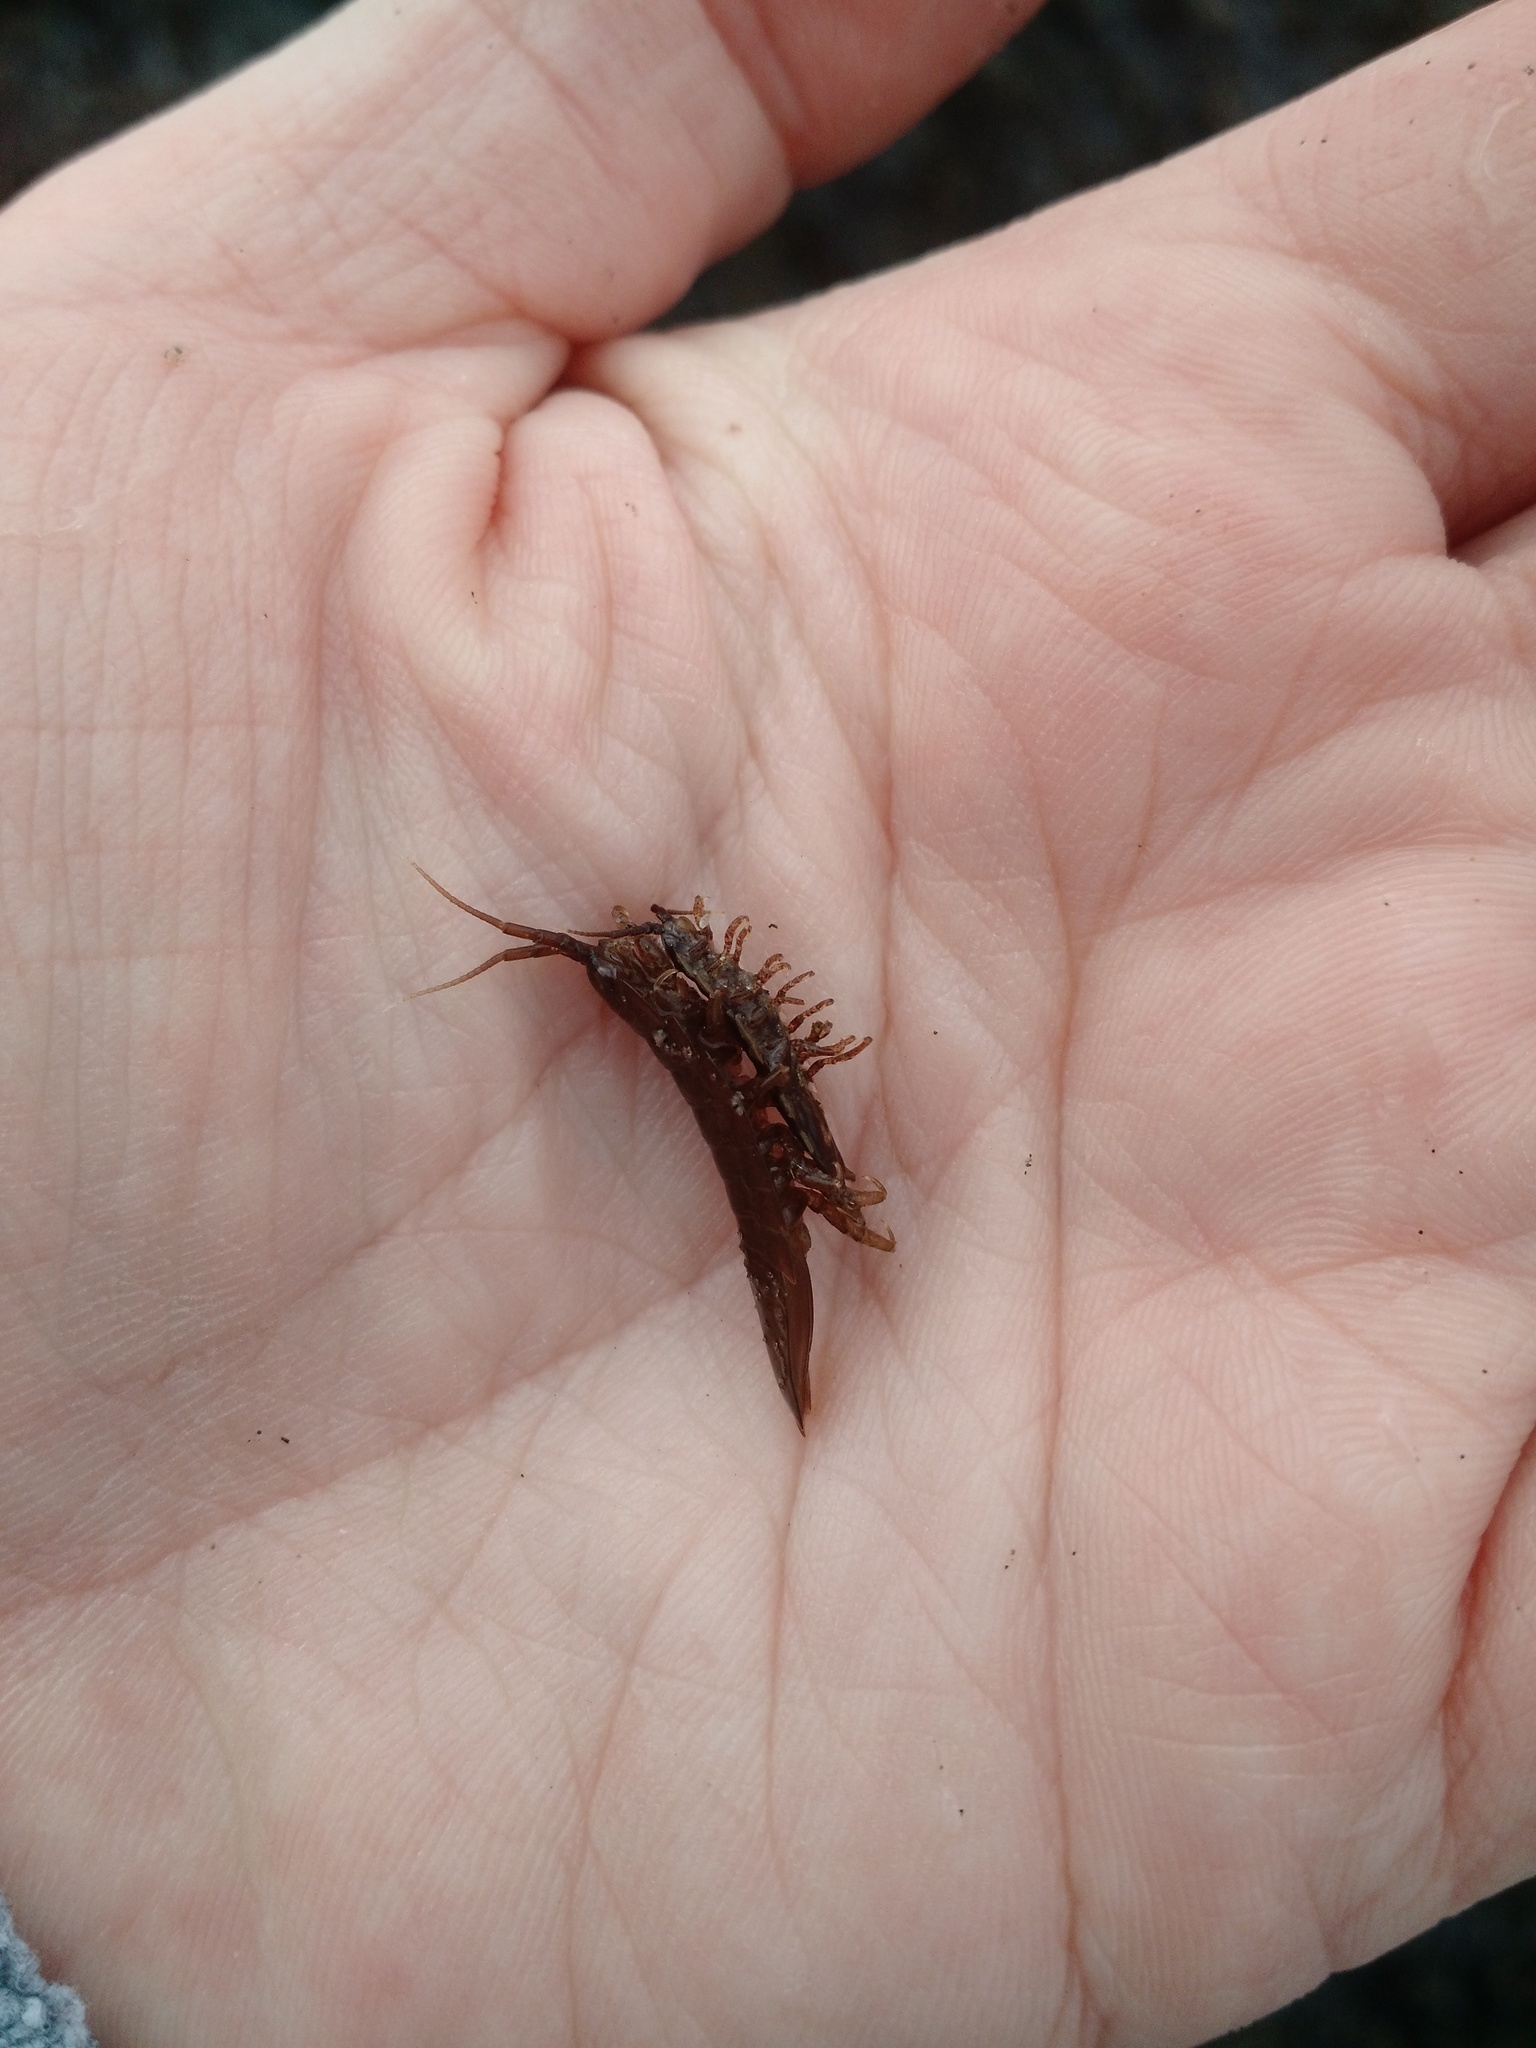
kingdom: Animalia
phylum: Arthropoda
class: Malacostraca
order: Isopoda
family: Idoteidae
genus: Idotea
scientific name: Idotea balthica
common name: Baltic isopod
